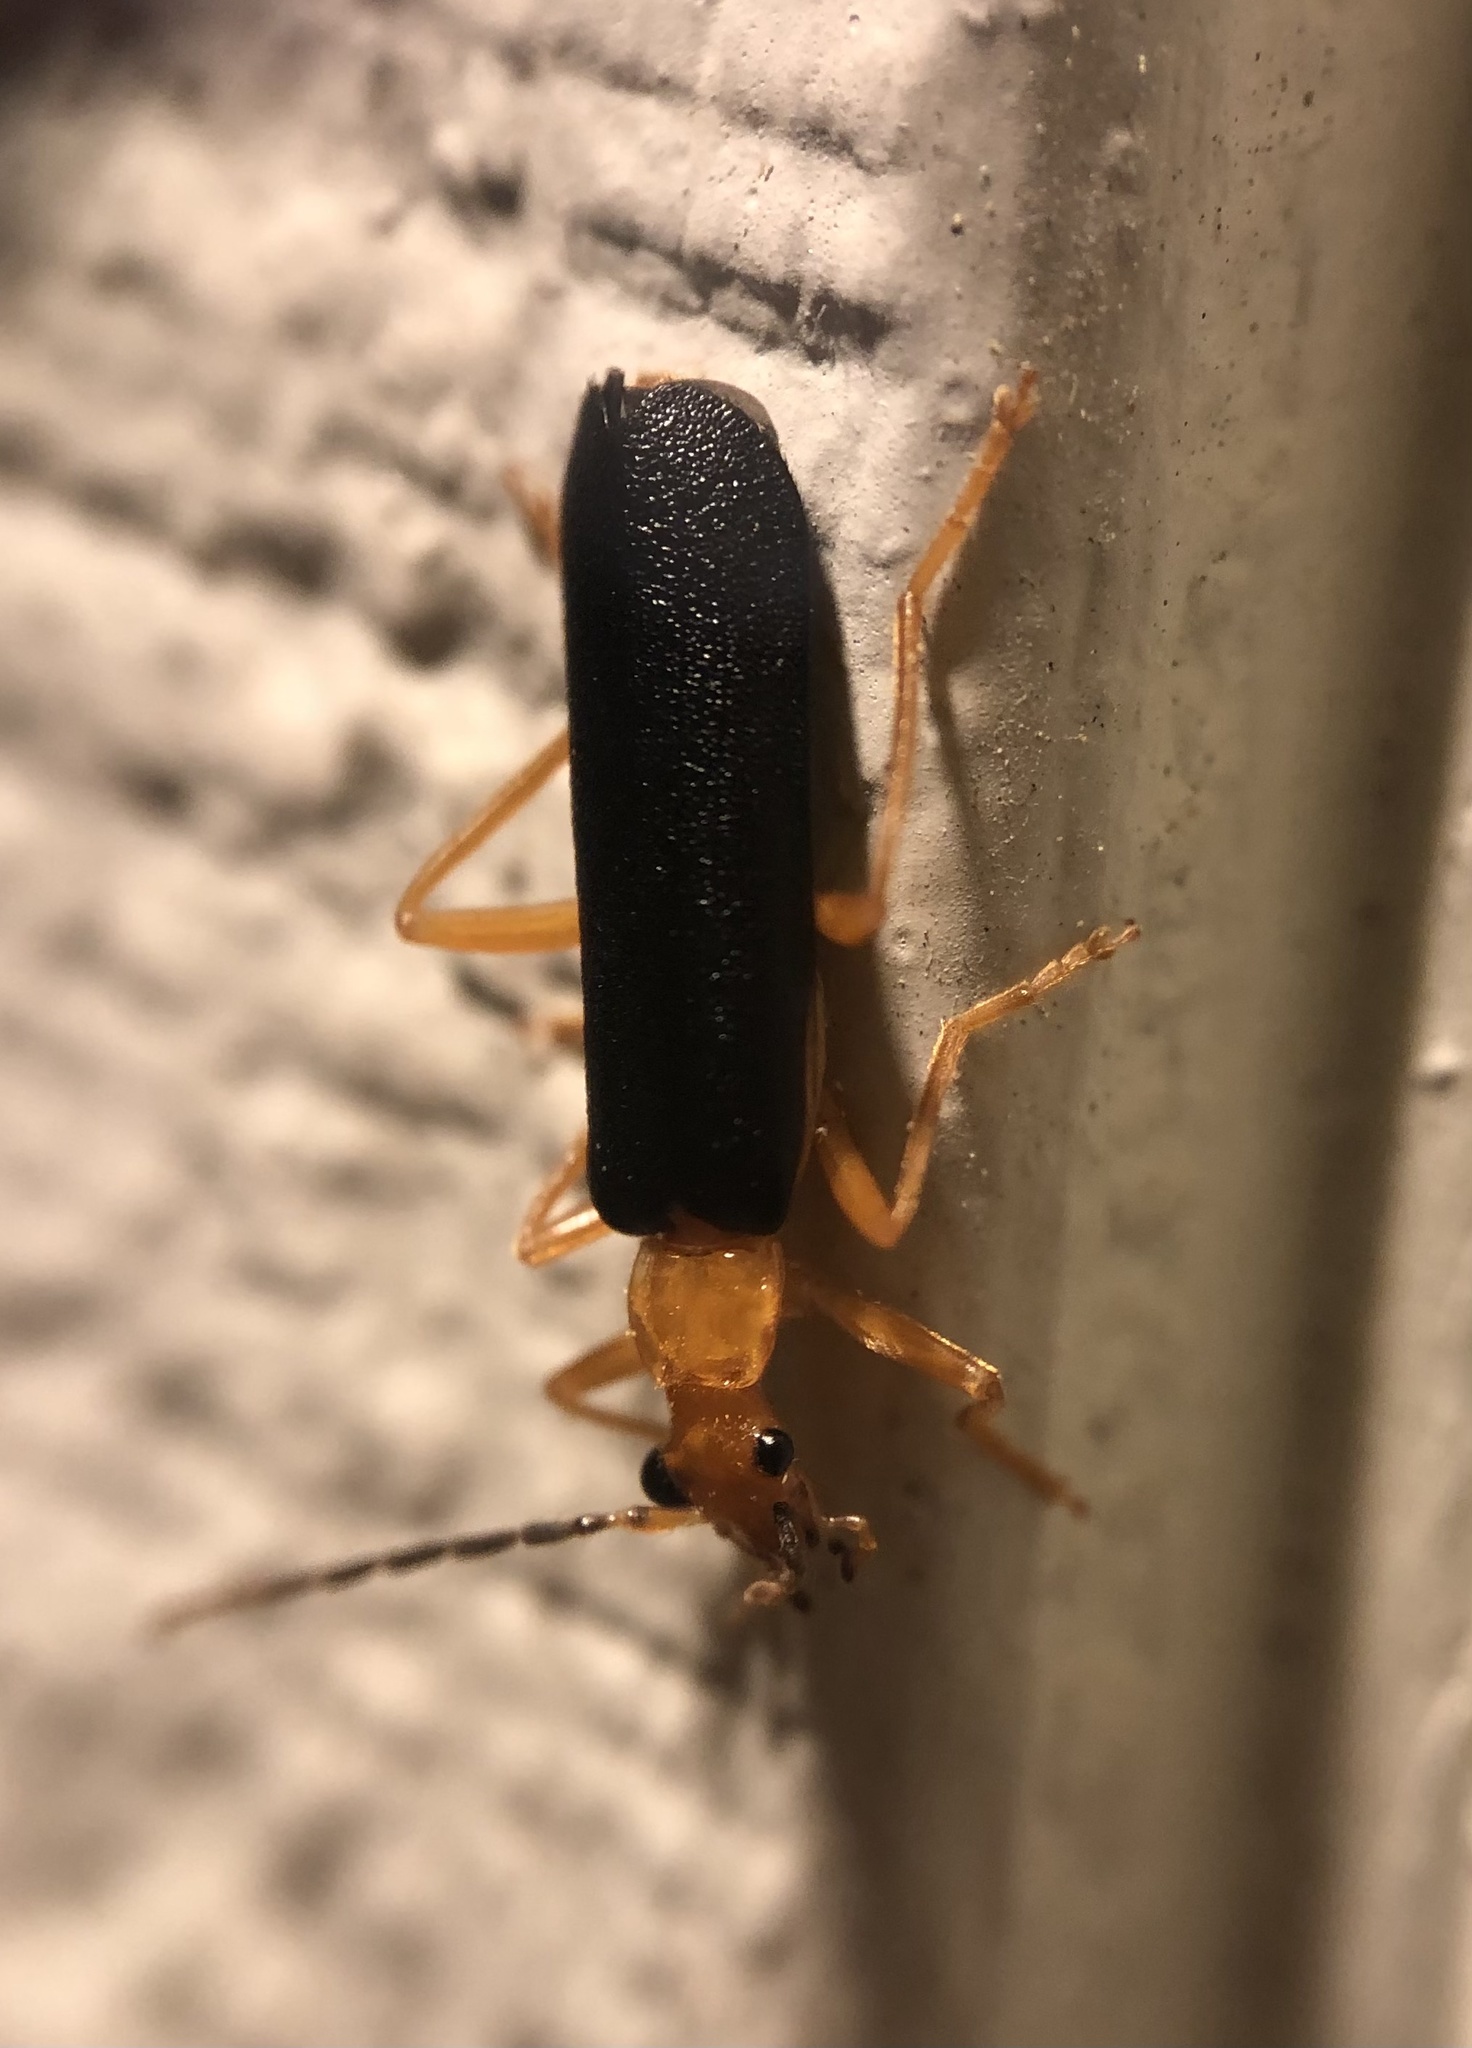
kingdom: Animalia
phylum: Arthropoda
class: Insecta
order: Coleoptera
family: Cantharidae
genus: Podabrus
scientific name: Podabrus fayi
